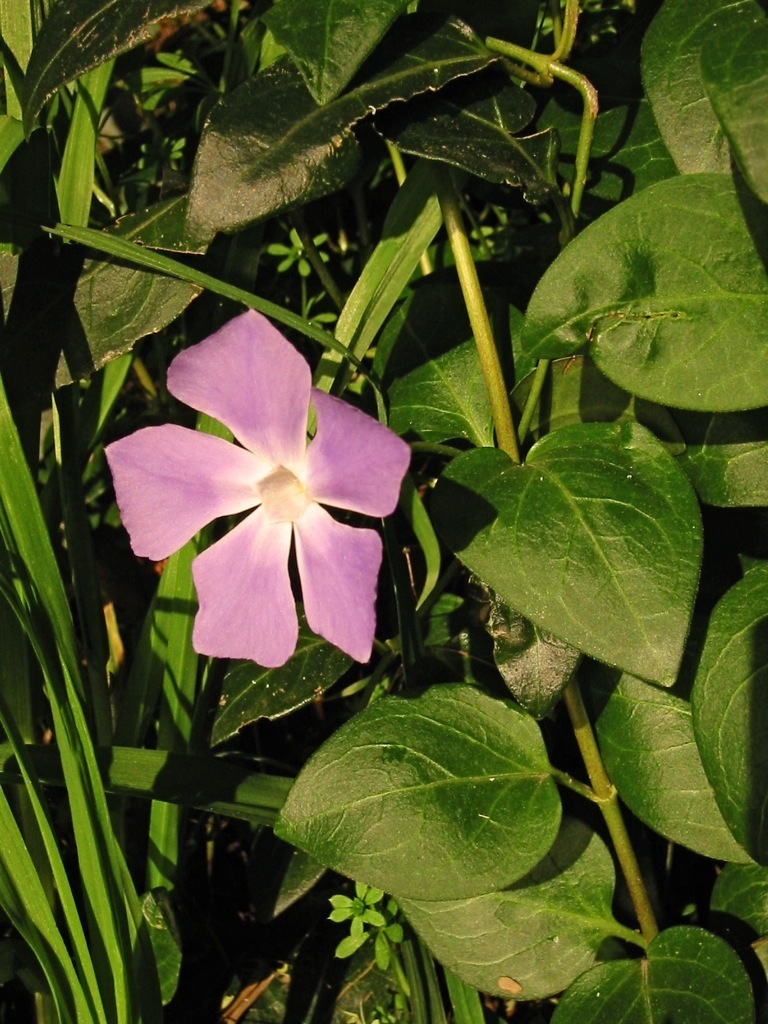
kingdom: Plantae
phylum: Tracheophyta
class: Magnoliopsida
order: Gentianales
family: Apocynaceae
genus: Vinca
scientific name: Vinca major
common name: Greater periwinkle
